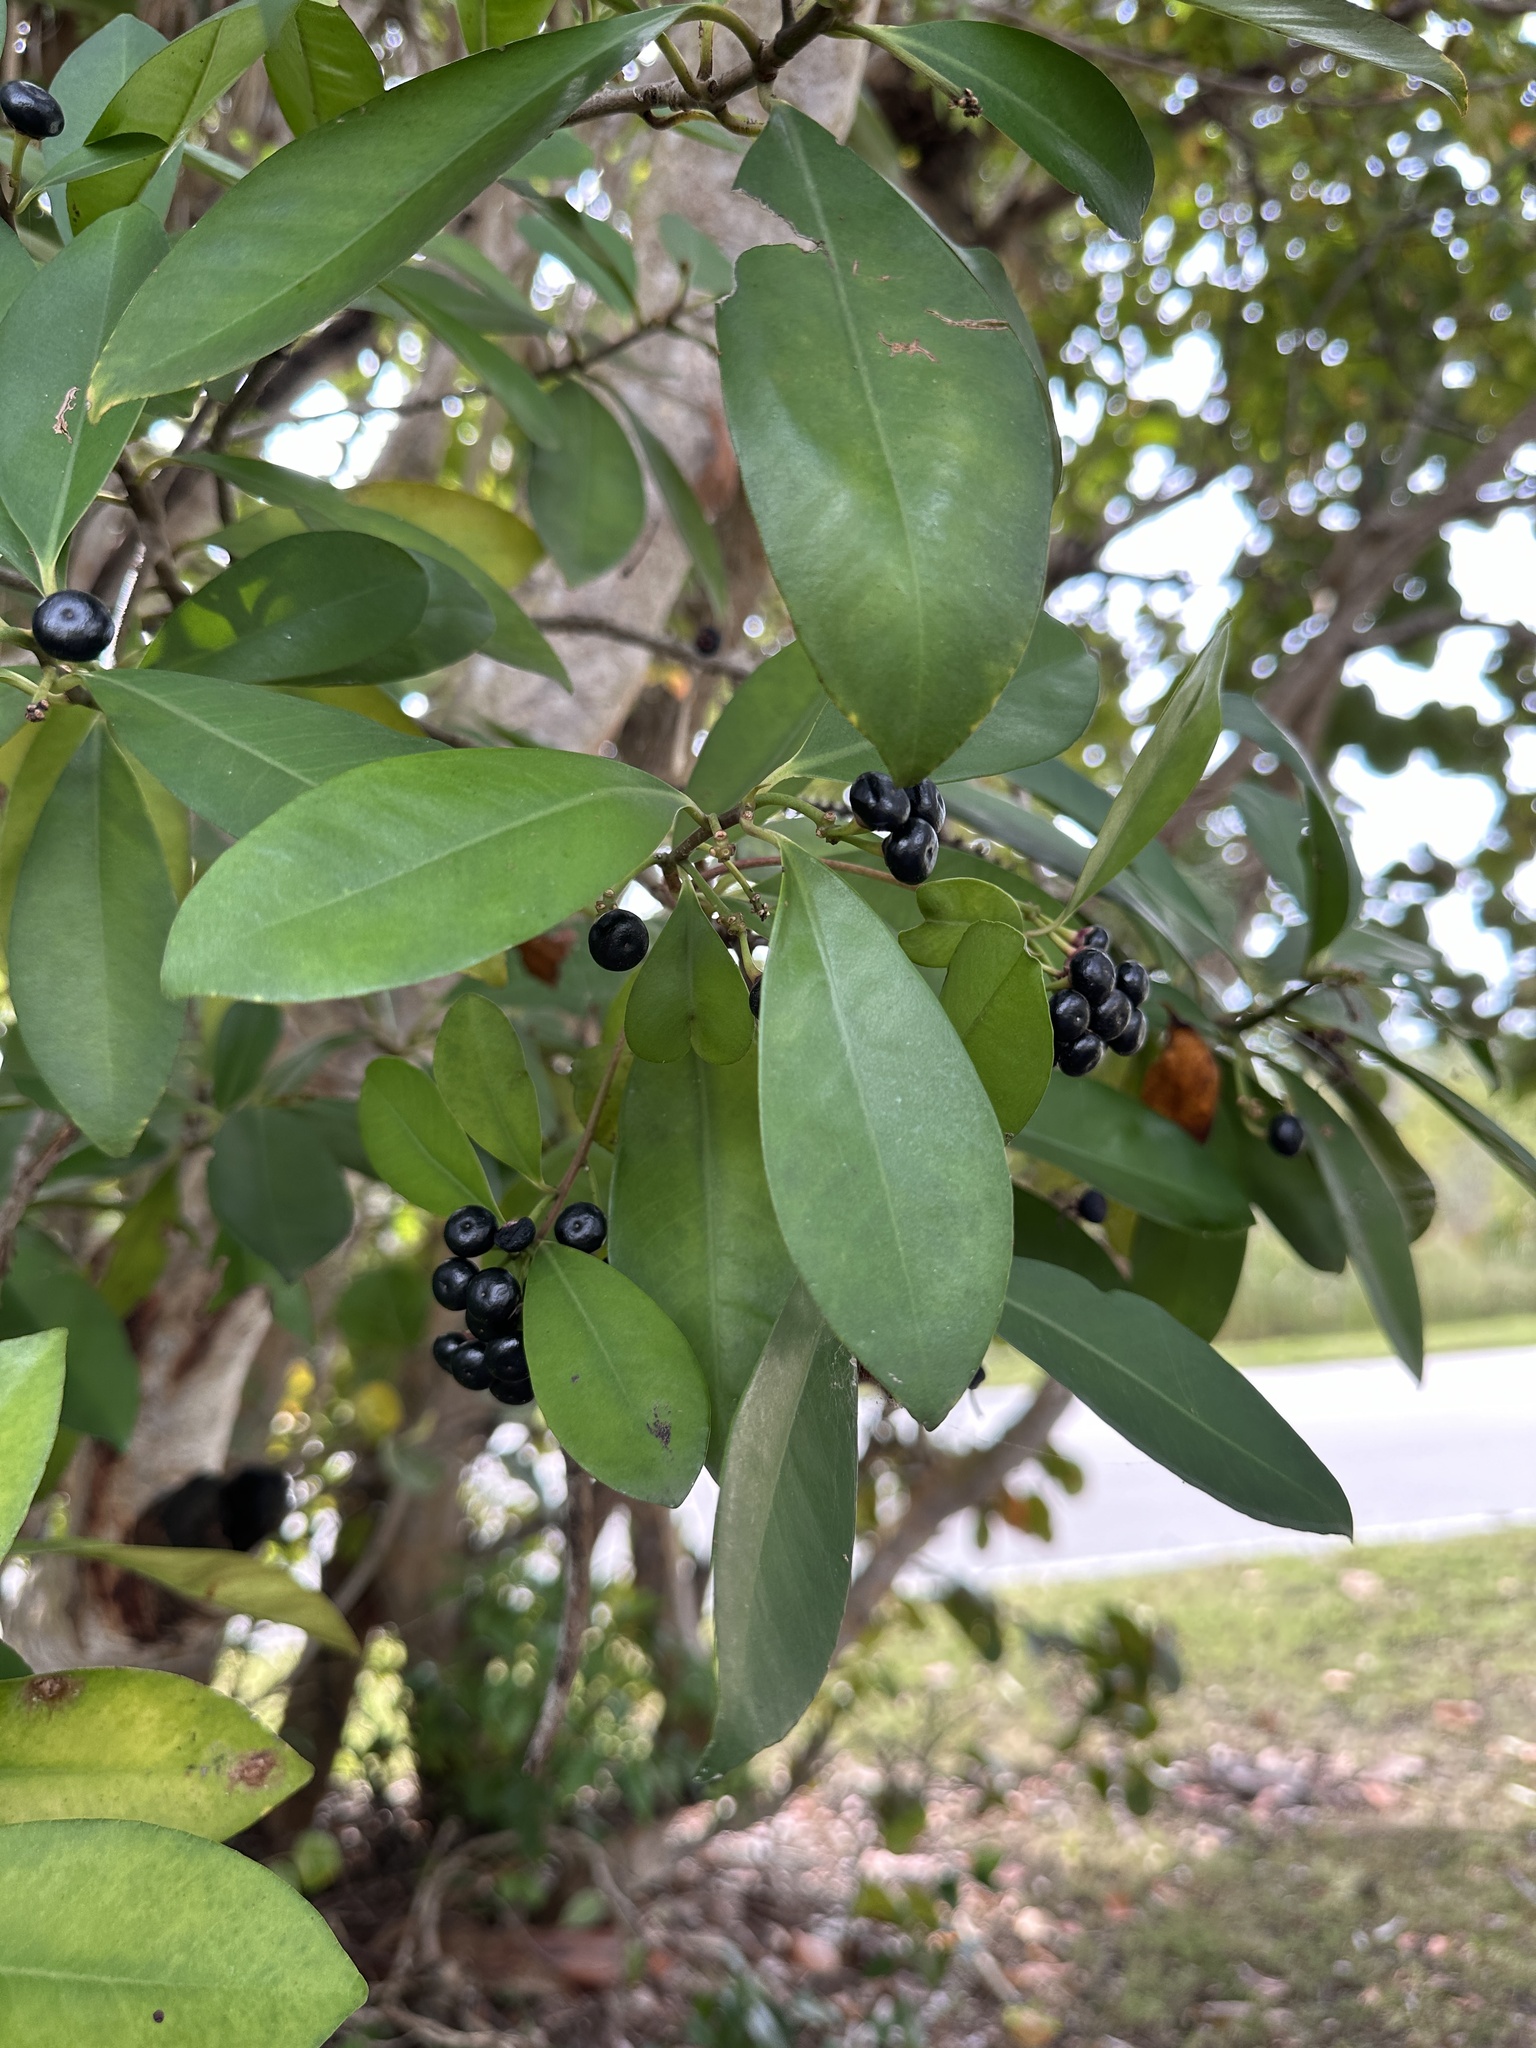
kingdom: Plantae
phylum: Tracheophyta
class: Magnoliopsida
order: Ericales
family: Primulaceae
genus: Ardisia
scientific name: Ardisia elliptica
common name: Shoebutton
